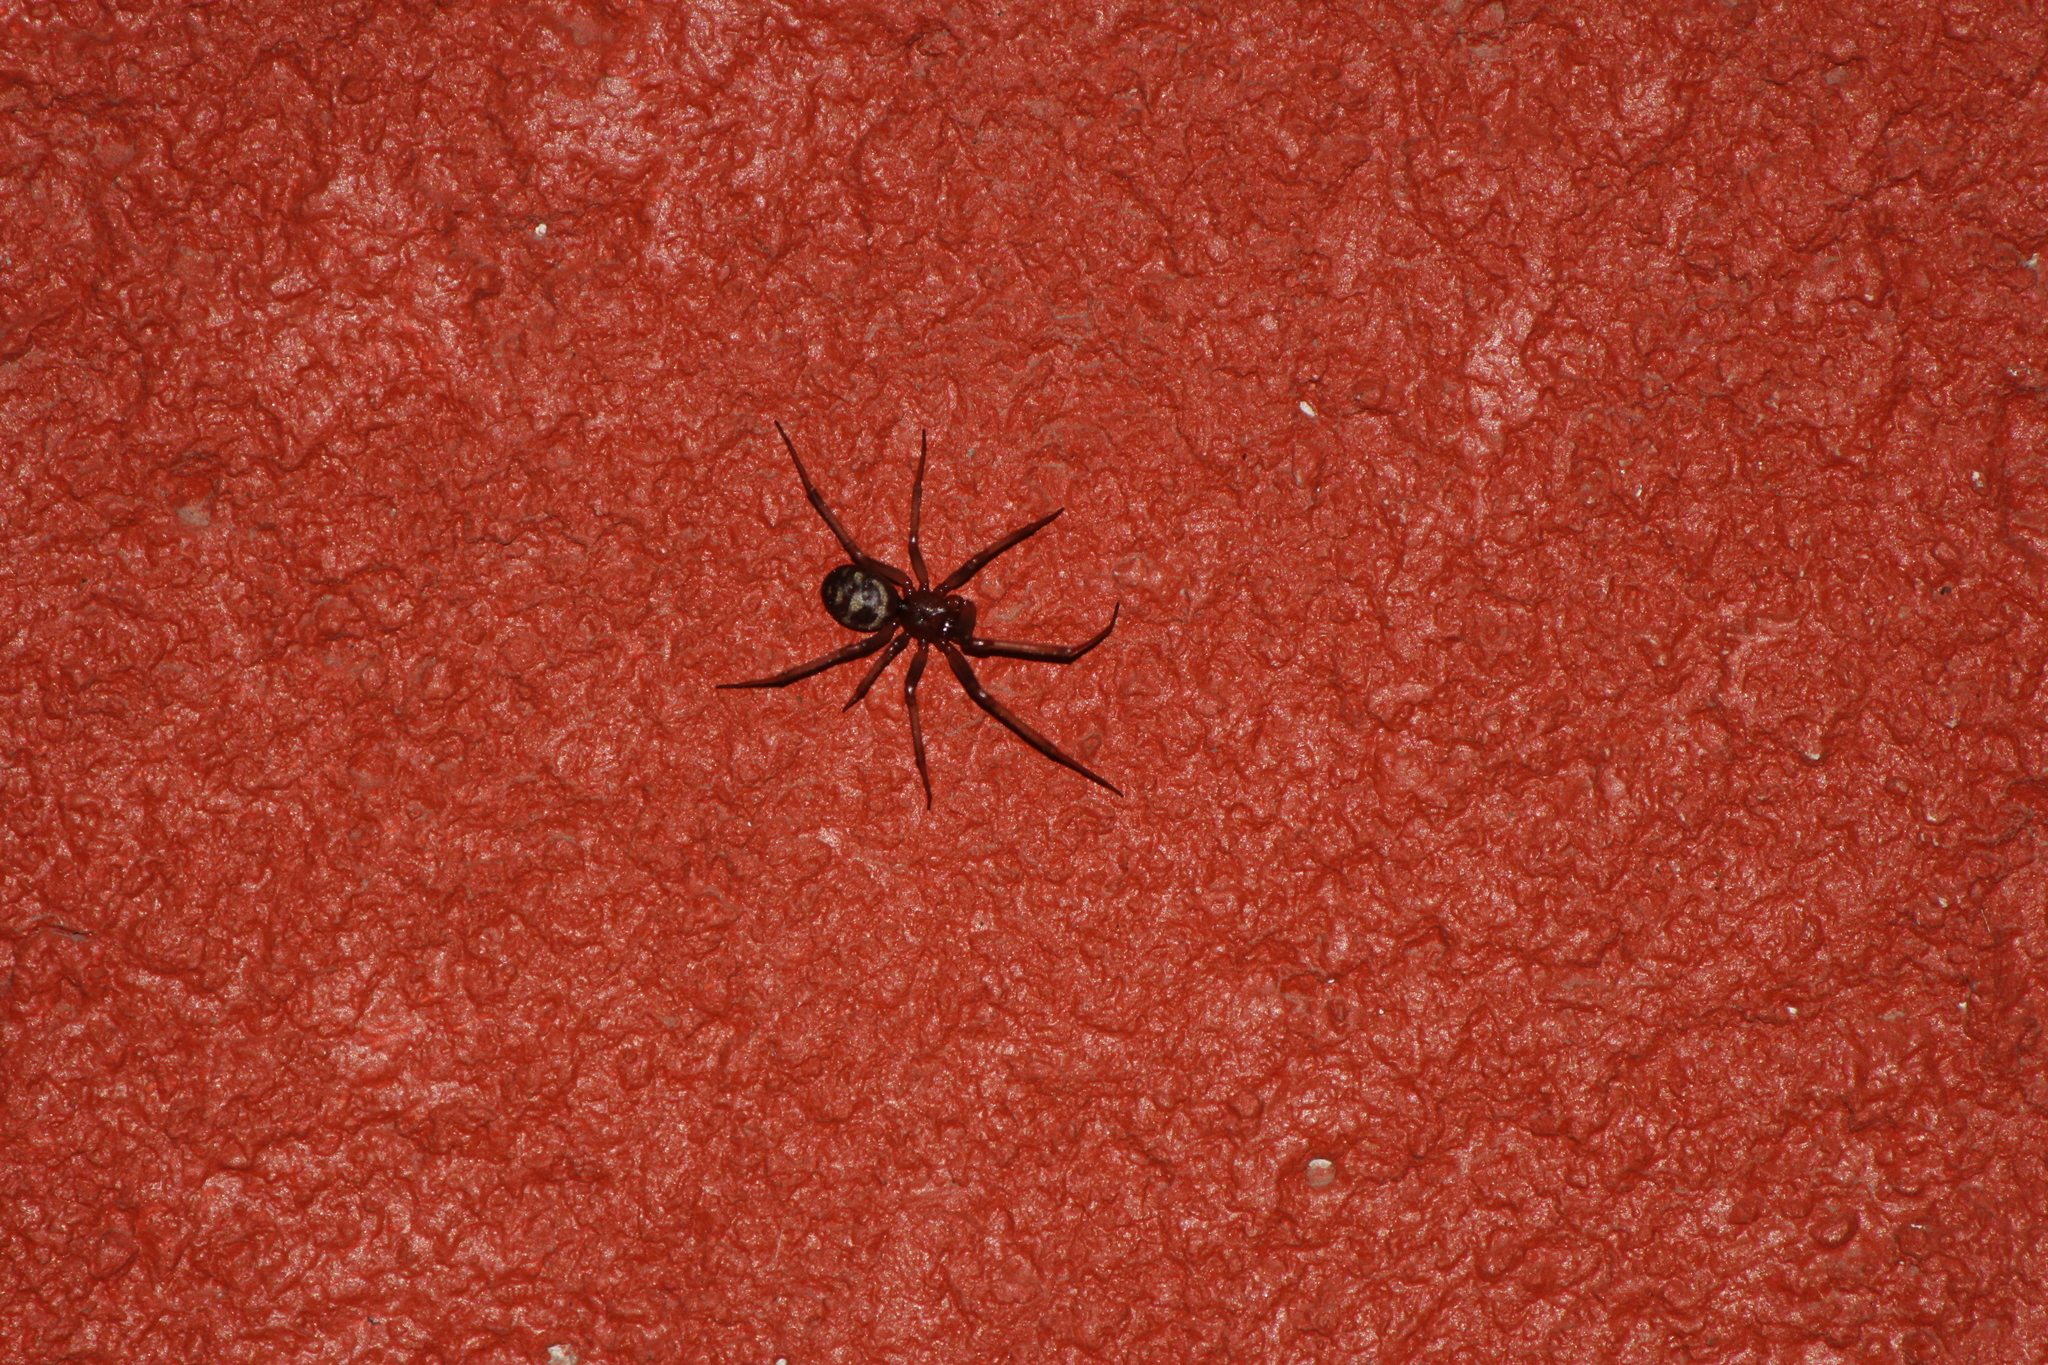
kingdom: Animalia
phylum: Arthropoda
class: Arachnida
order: Araneae
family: Theridiidae
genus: Steatoda
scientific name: Steatoda grossa
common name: False black widow
